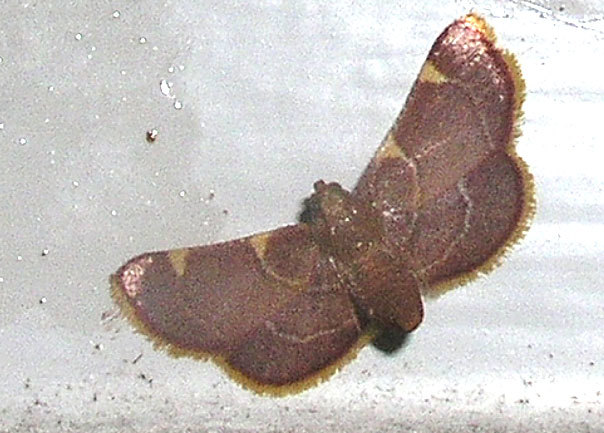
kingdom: Animalia
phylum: Arthropoda
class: Insecta
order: Lepidoptera
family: Pyralidae
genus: Hypsopygia
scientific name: Hypsopygia olinalis
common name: Yellow-fringed dolichomia moth
